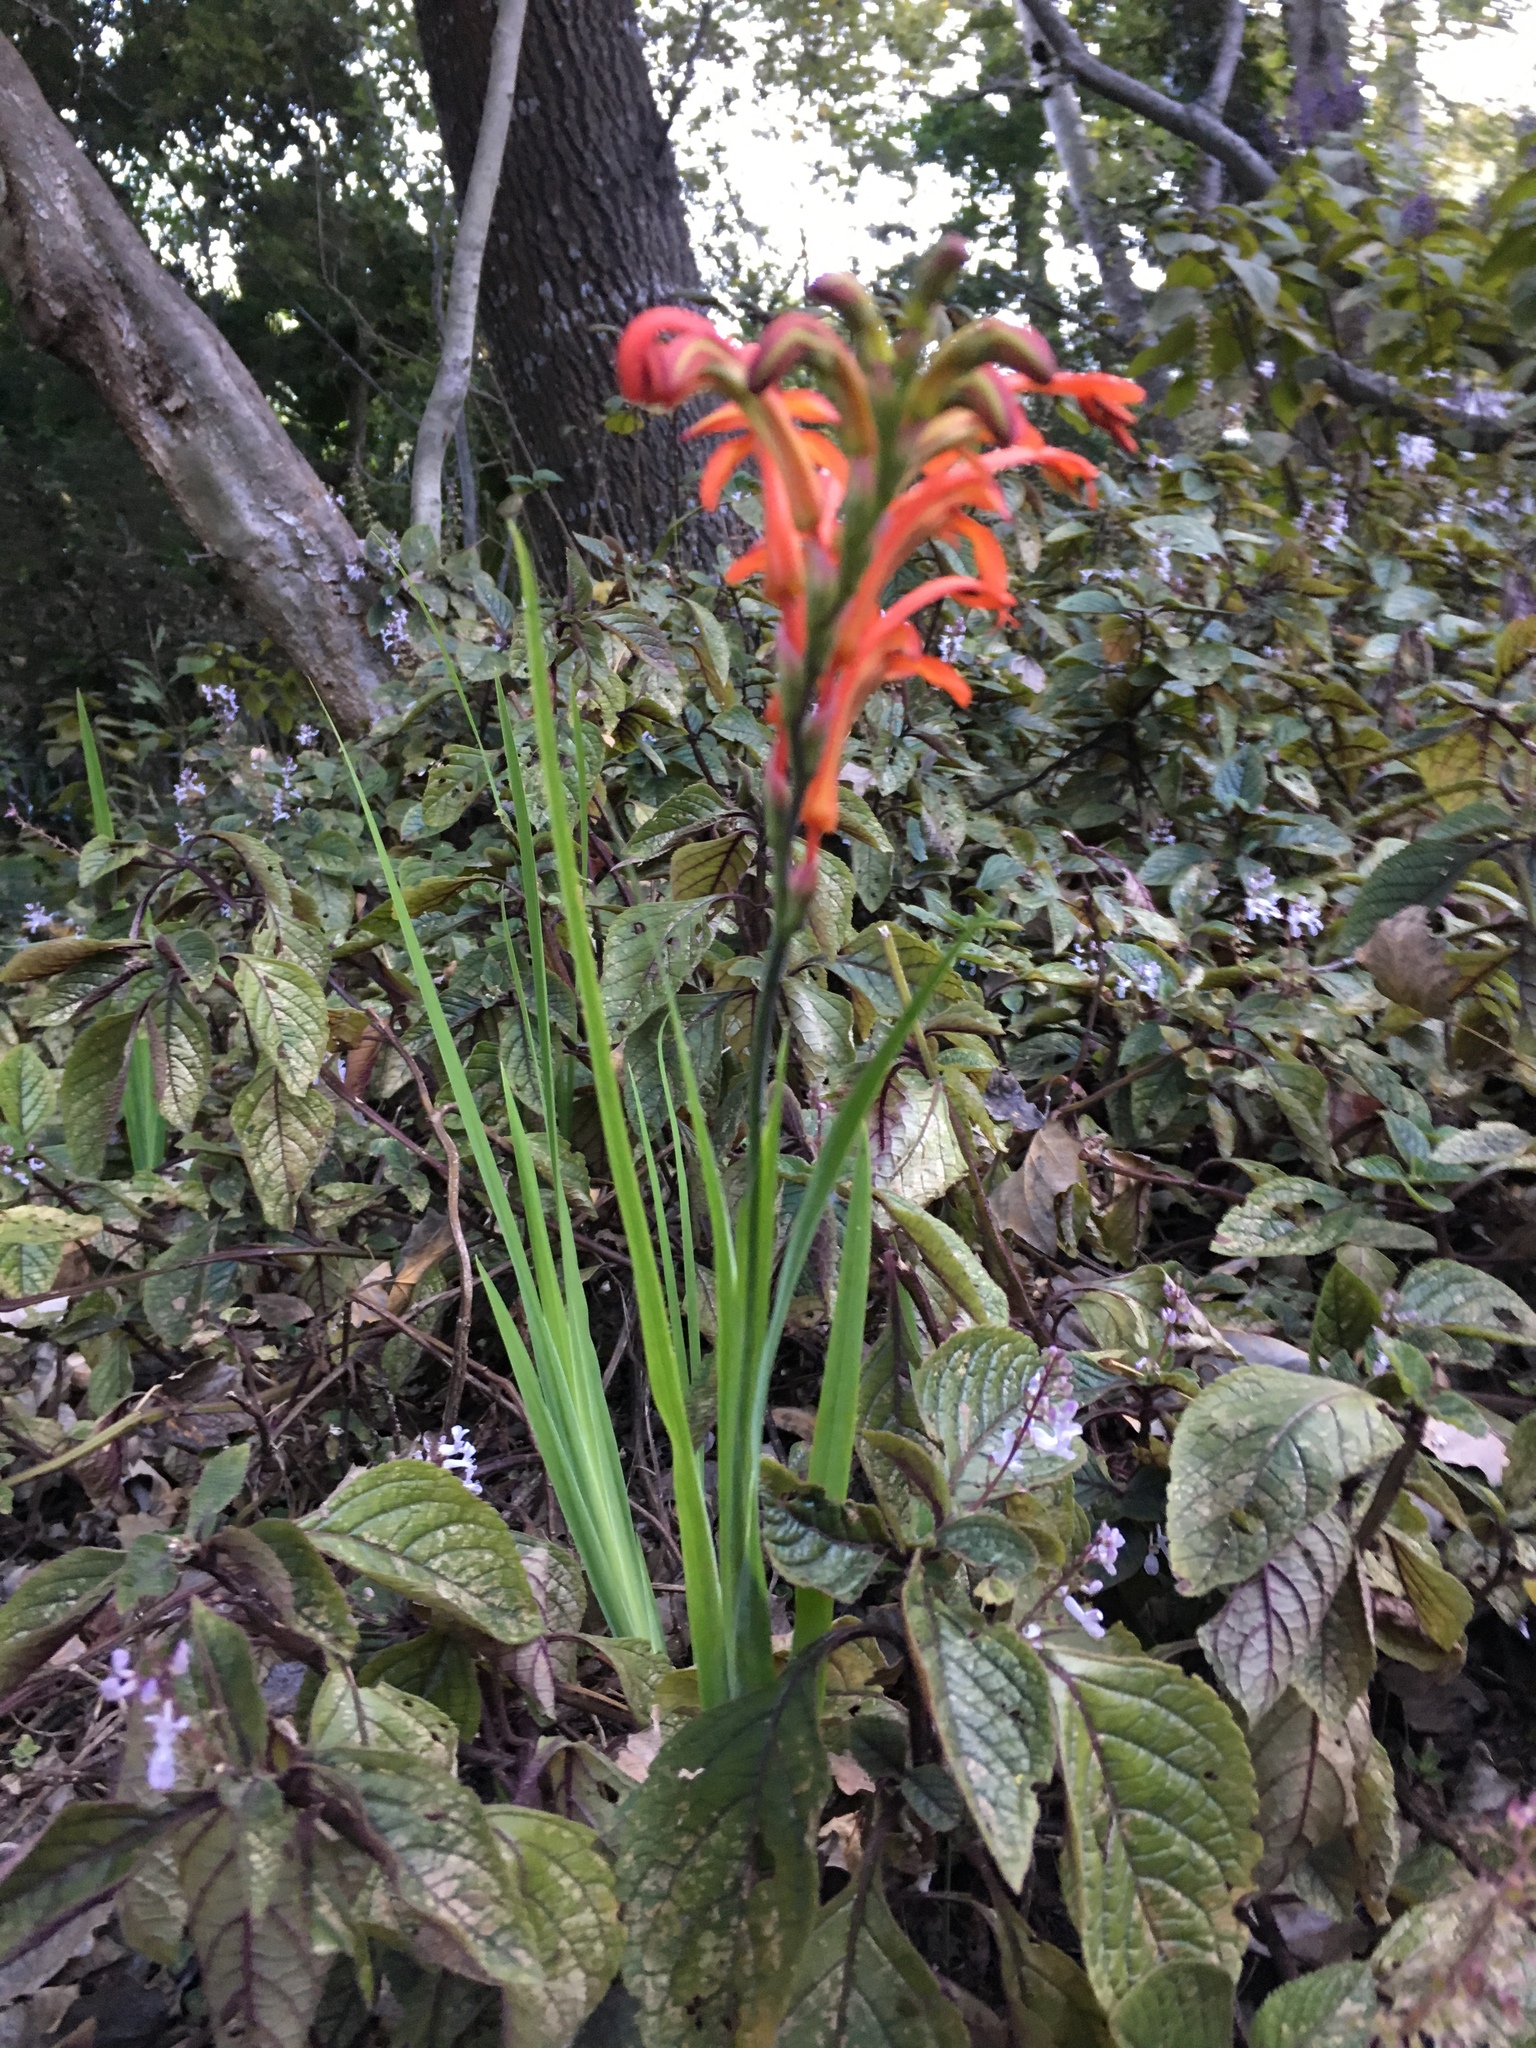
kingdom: Plantae
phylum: Tracheophyta
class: Liliopsida
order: Asparagales
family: Iridaceae
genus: Chasmanthe
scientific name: Chasmanthe aethiopica
